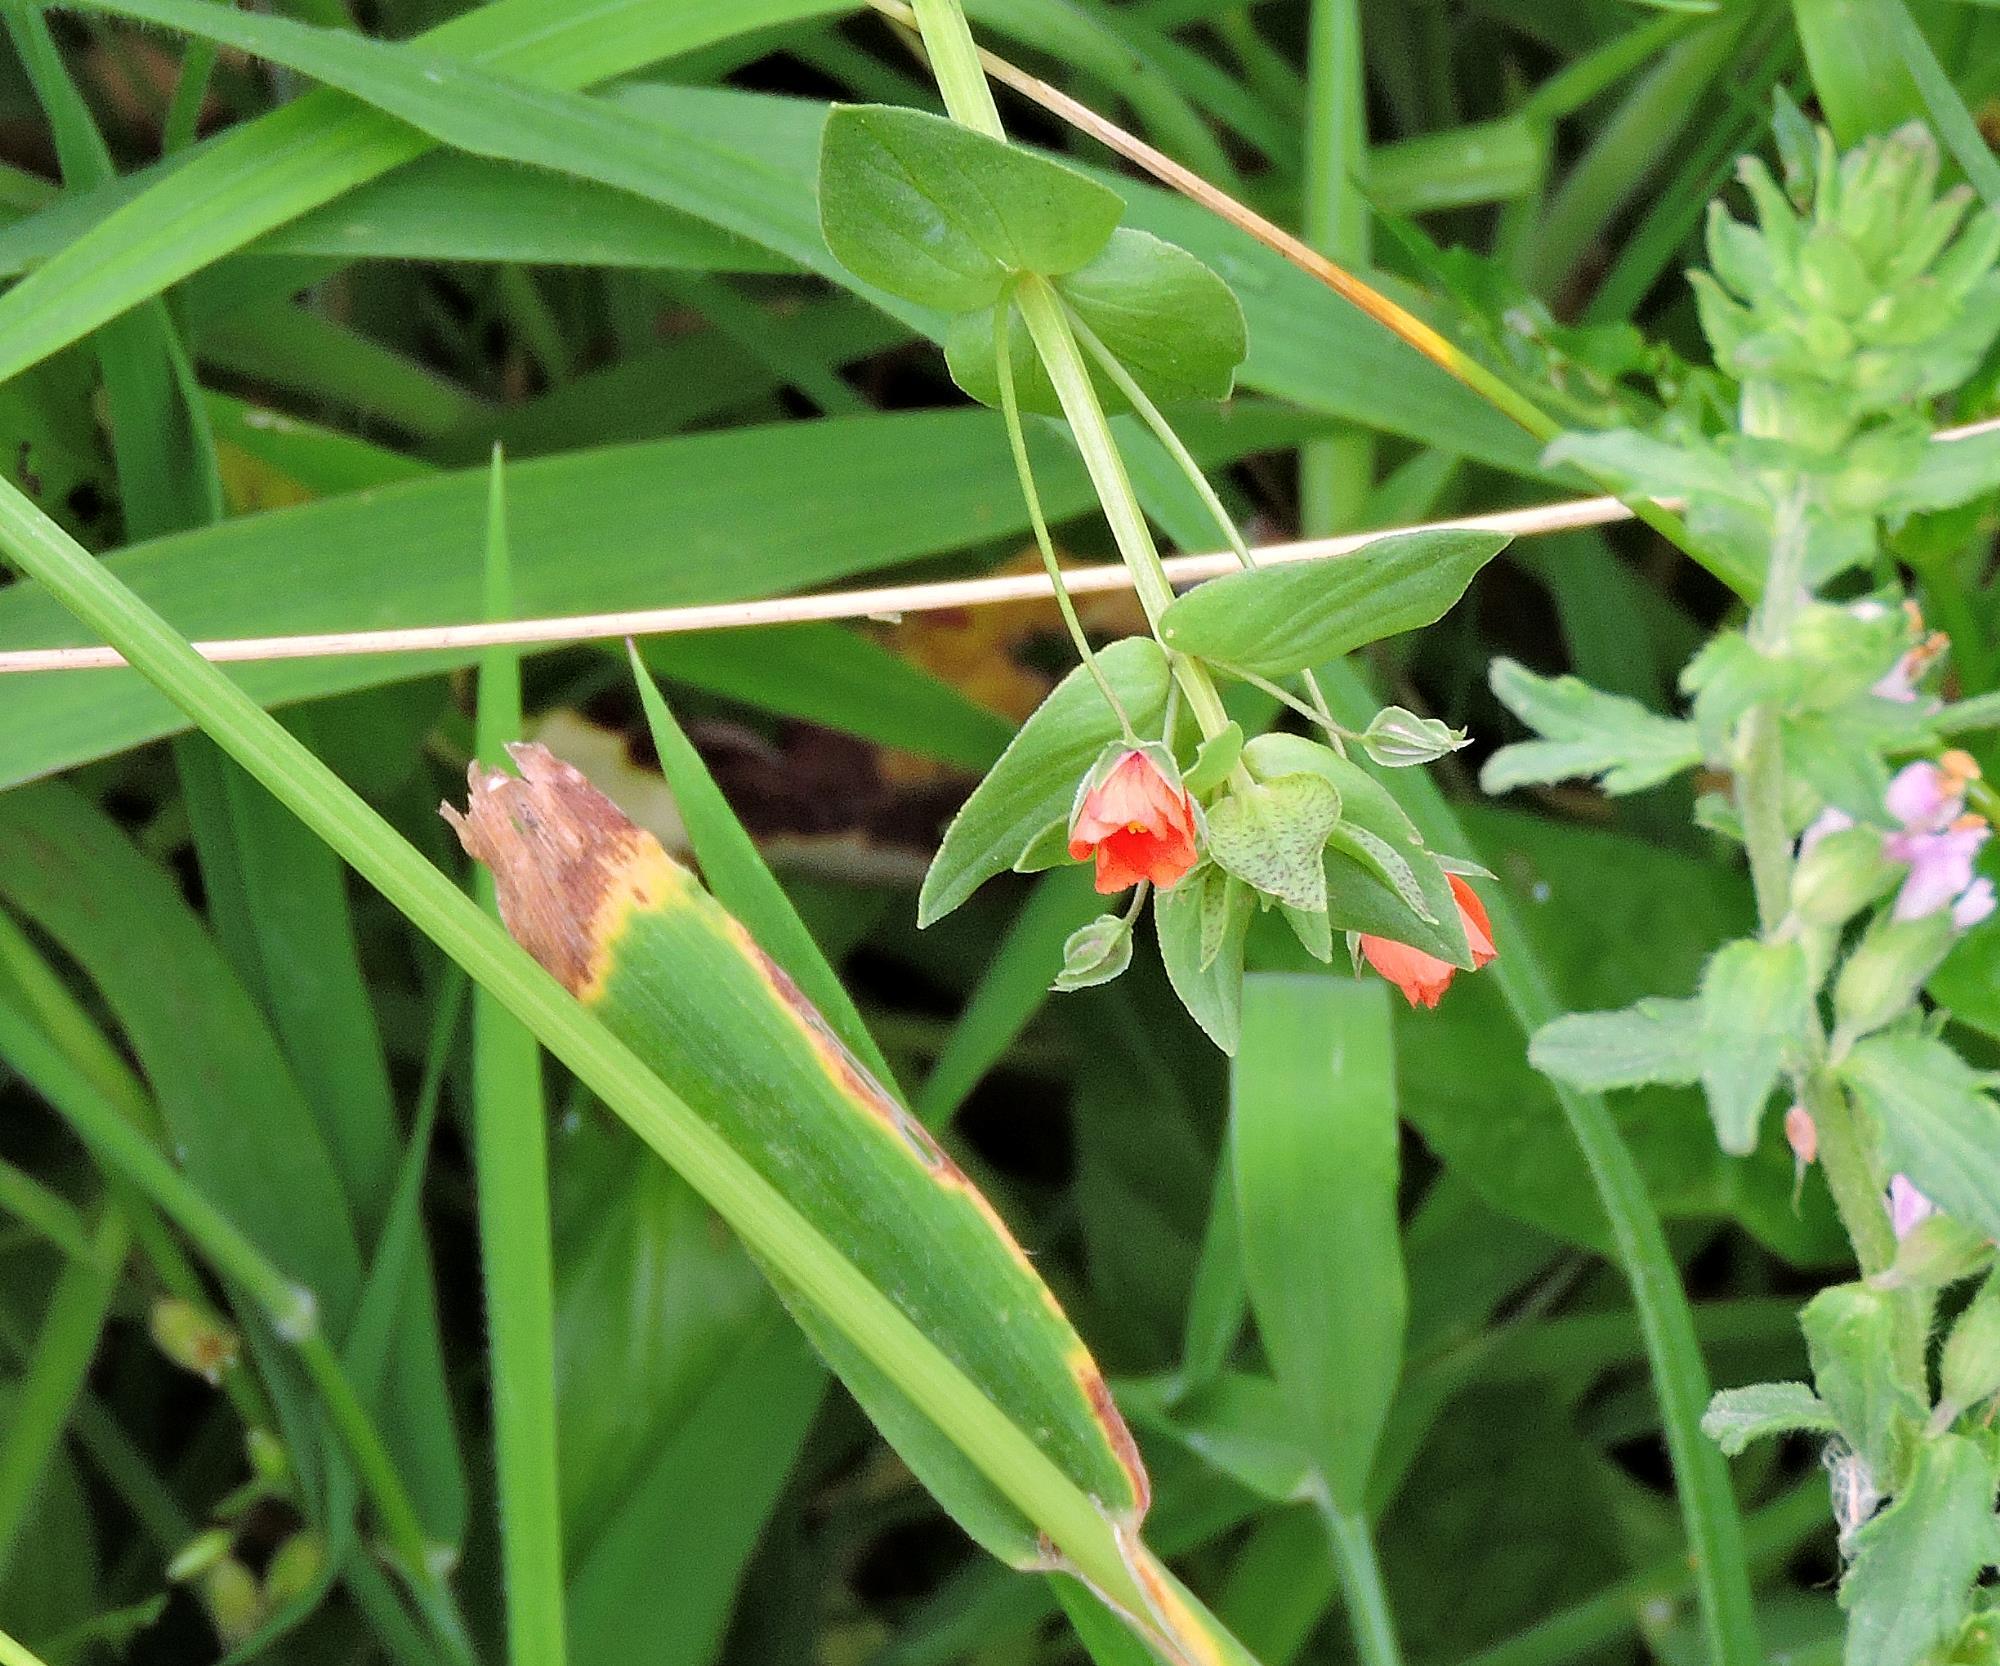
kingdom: Plantae
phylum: Tracheophyta
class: Magnoliopsida
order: Ericales
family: Primulaceae
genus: Lysimachia
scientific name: Lysimachia arvensis
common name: Scarlet pimpernel
